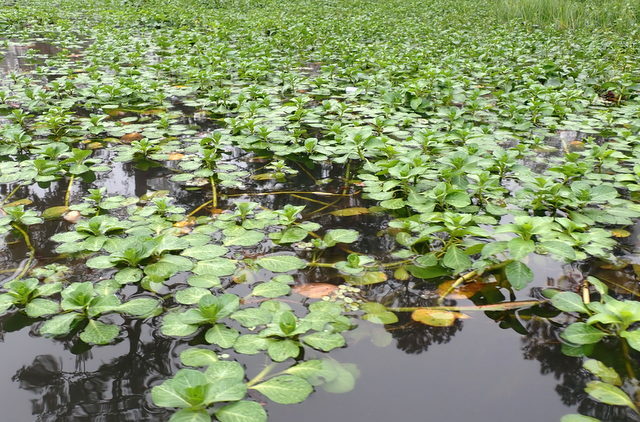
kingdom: Plantae
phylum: Tracheophyta
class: Magnoliopsida
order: Myrtales
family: Onagraceae
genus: Ludwigia
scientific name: Ludwigia peploides
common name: Floating primrose-willow
